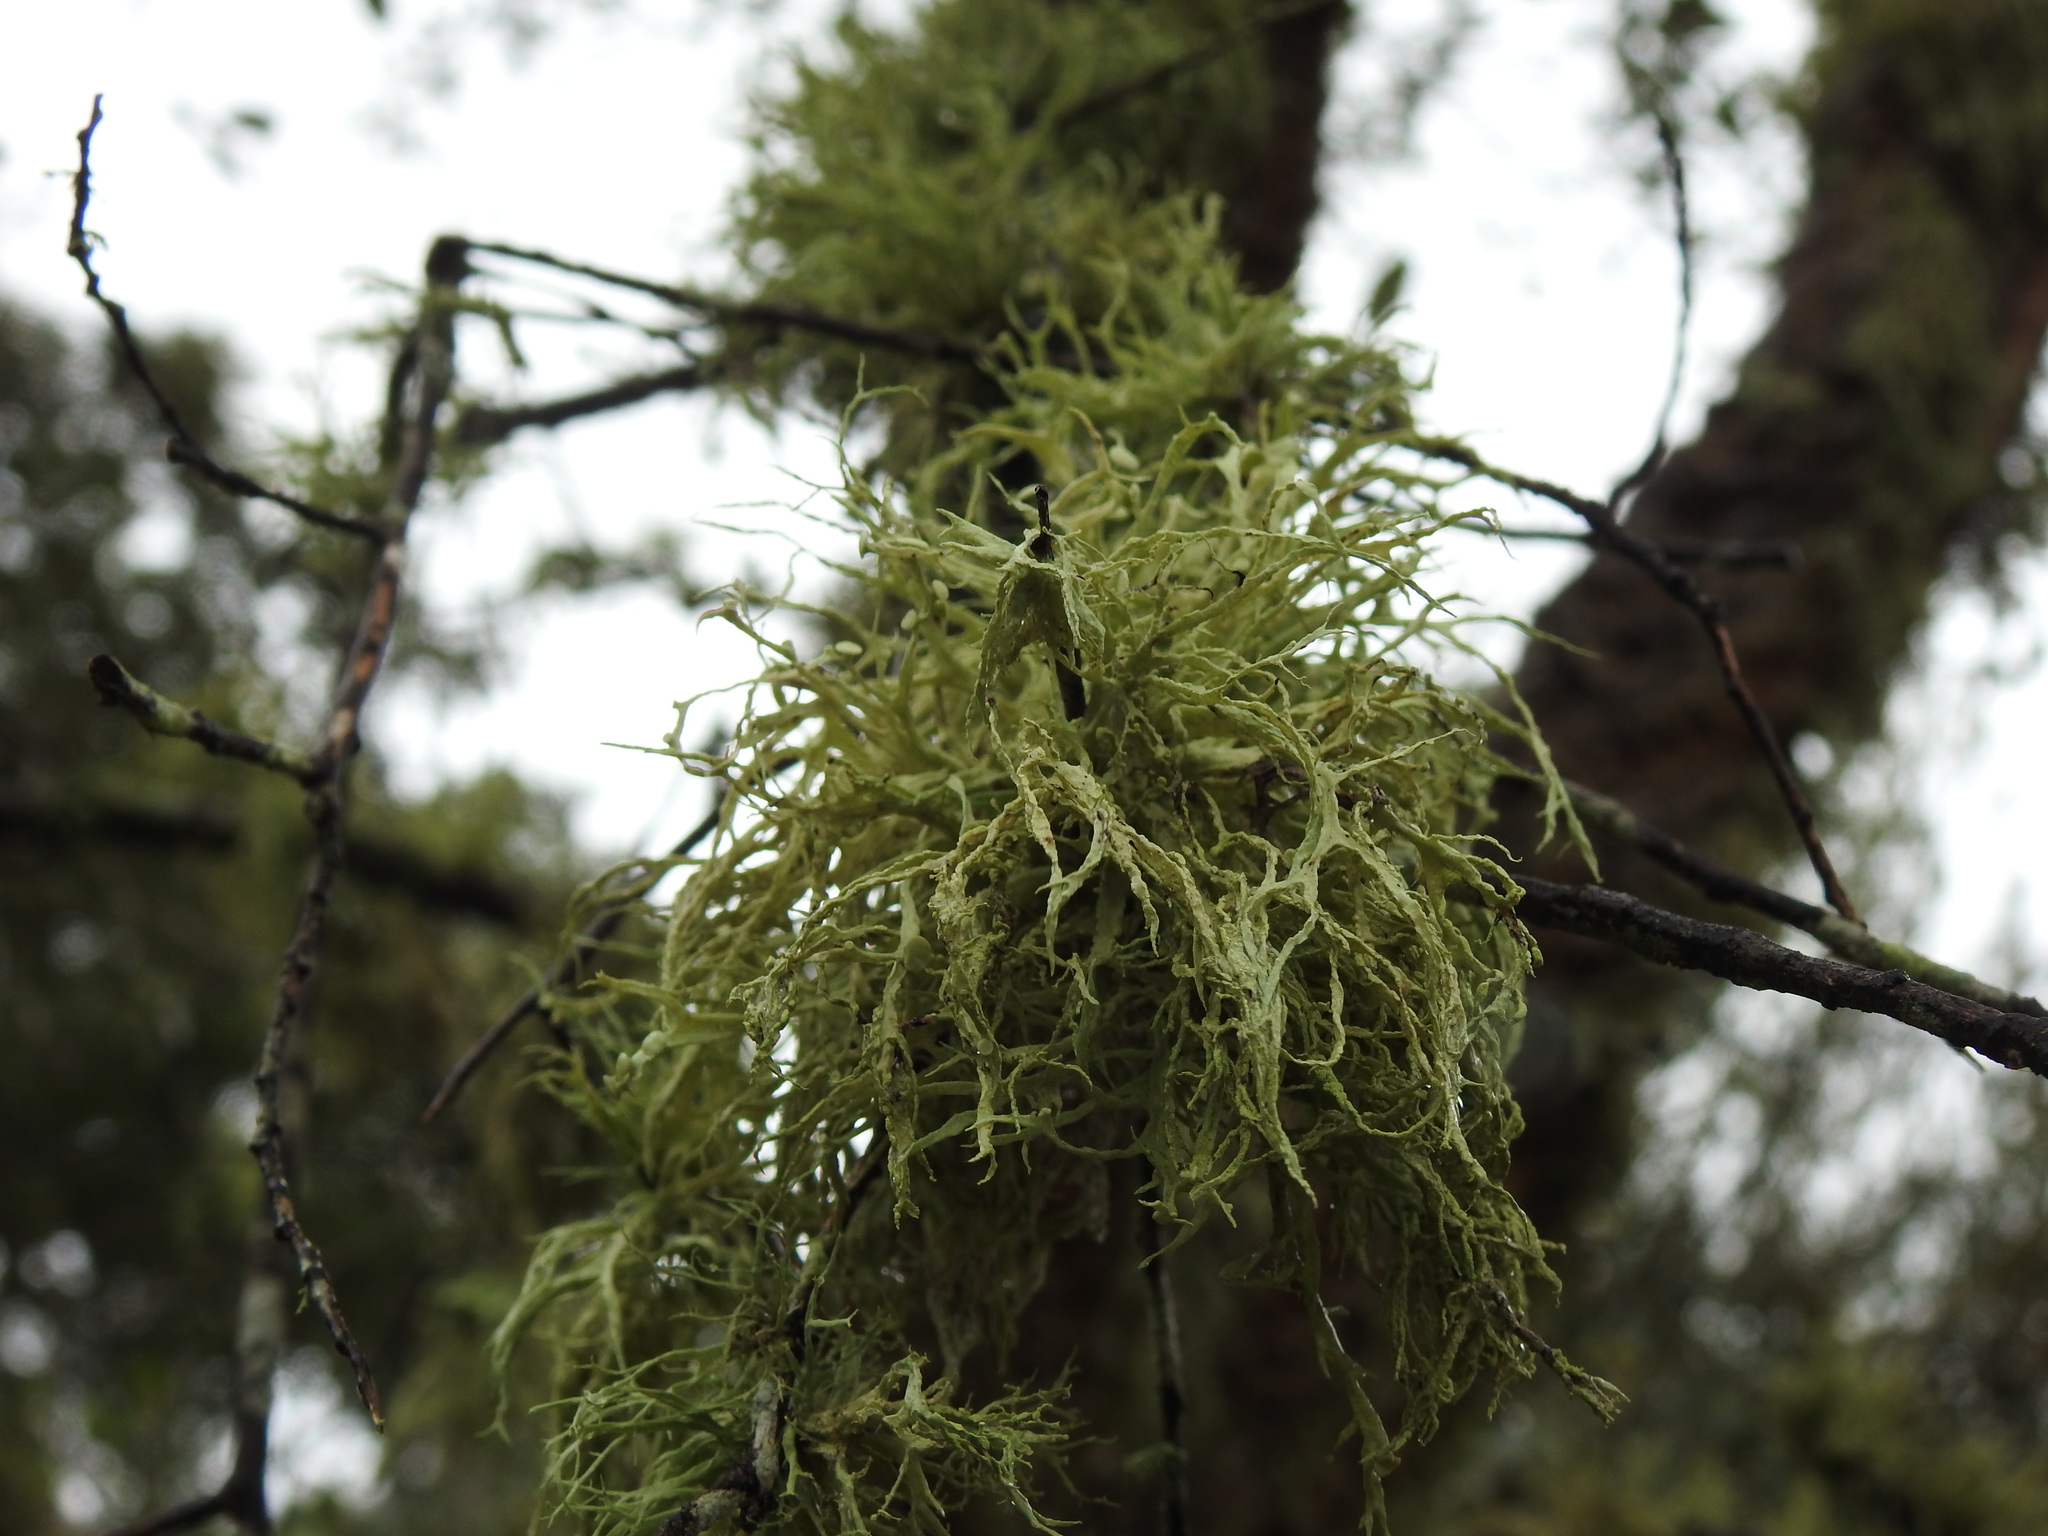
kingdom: Fungi
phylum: Ascomycota
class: Lecanoromycetes
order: Lecanorales
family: Ramalinaceae
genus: Ramalina
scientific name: Ramalina farinacea
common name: Farinose cartilage lichen
